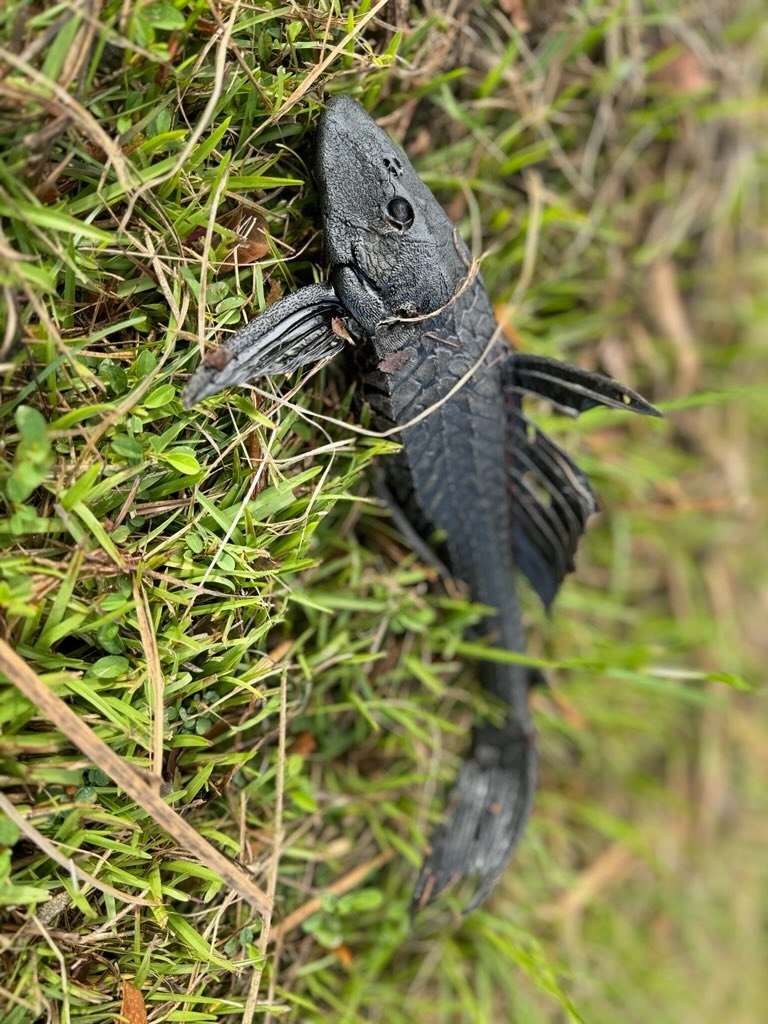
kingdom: Animalia
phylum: Chordata
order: Siluriformes
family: Loricariidae
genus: Pterygoplichthys
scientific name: Pterygoplichthys
